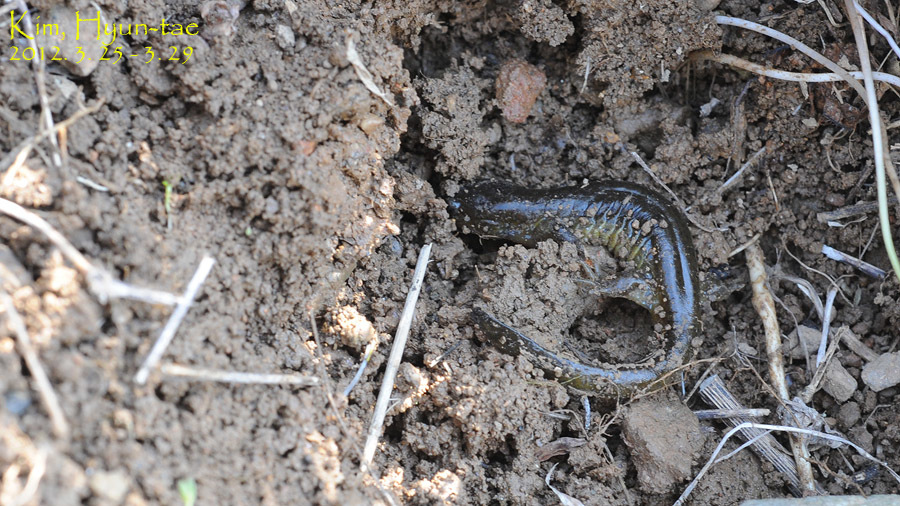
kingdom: Animalia
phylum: Chordata
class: Amphibia
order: Caudata
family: Hynobiidae
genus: Hynobius
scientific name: Hynobius unisacculus
